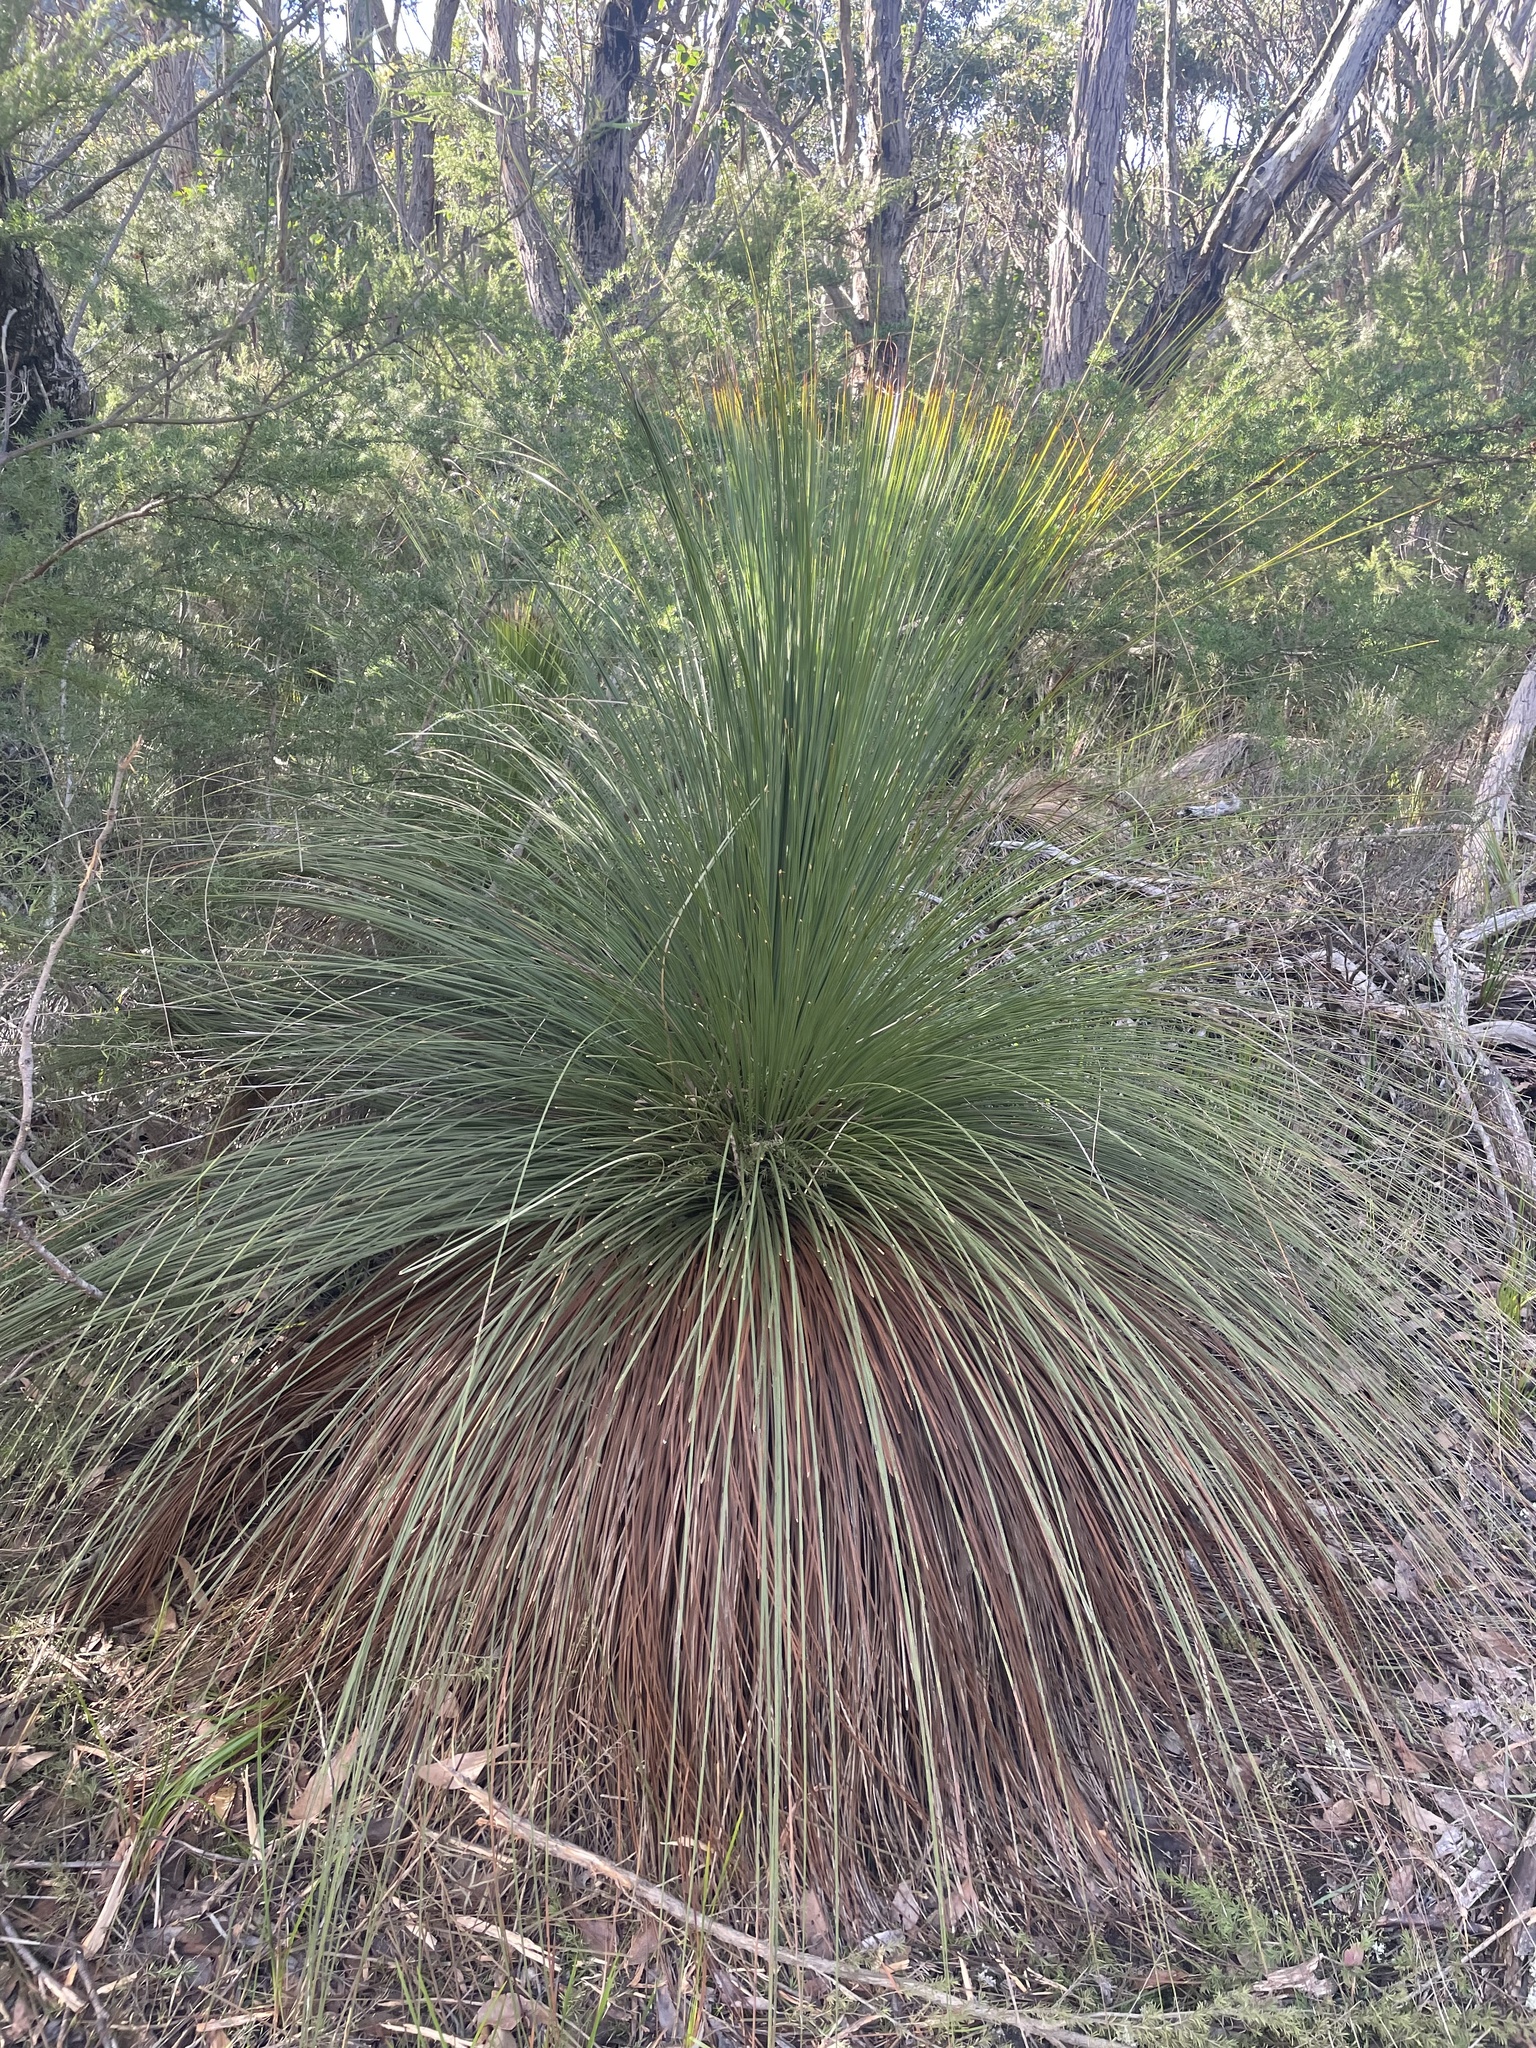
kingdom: Plantae
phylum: Tracheophyta
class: Liliopsida
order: Asparagales
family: Asphodelaceae
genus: Xanthorrhoea
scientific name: Xanthorrhoea australis
